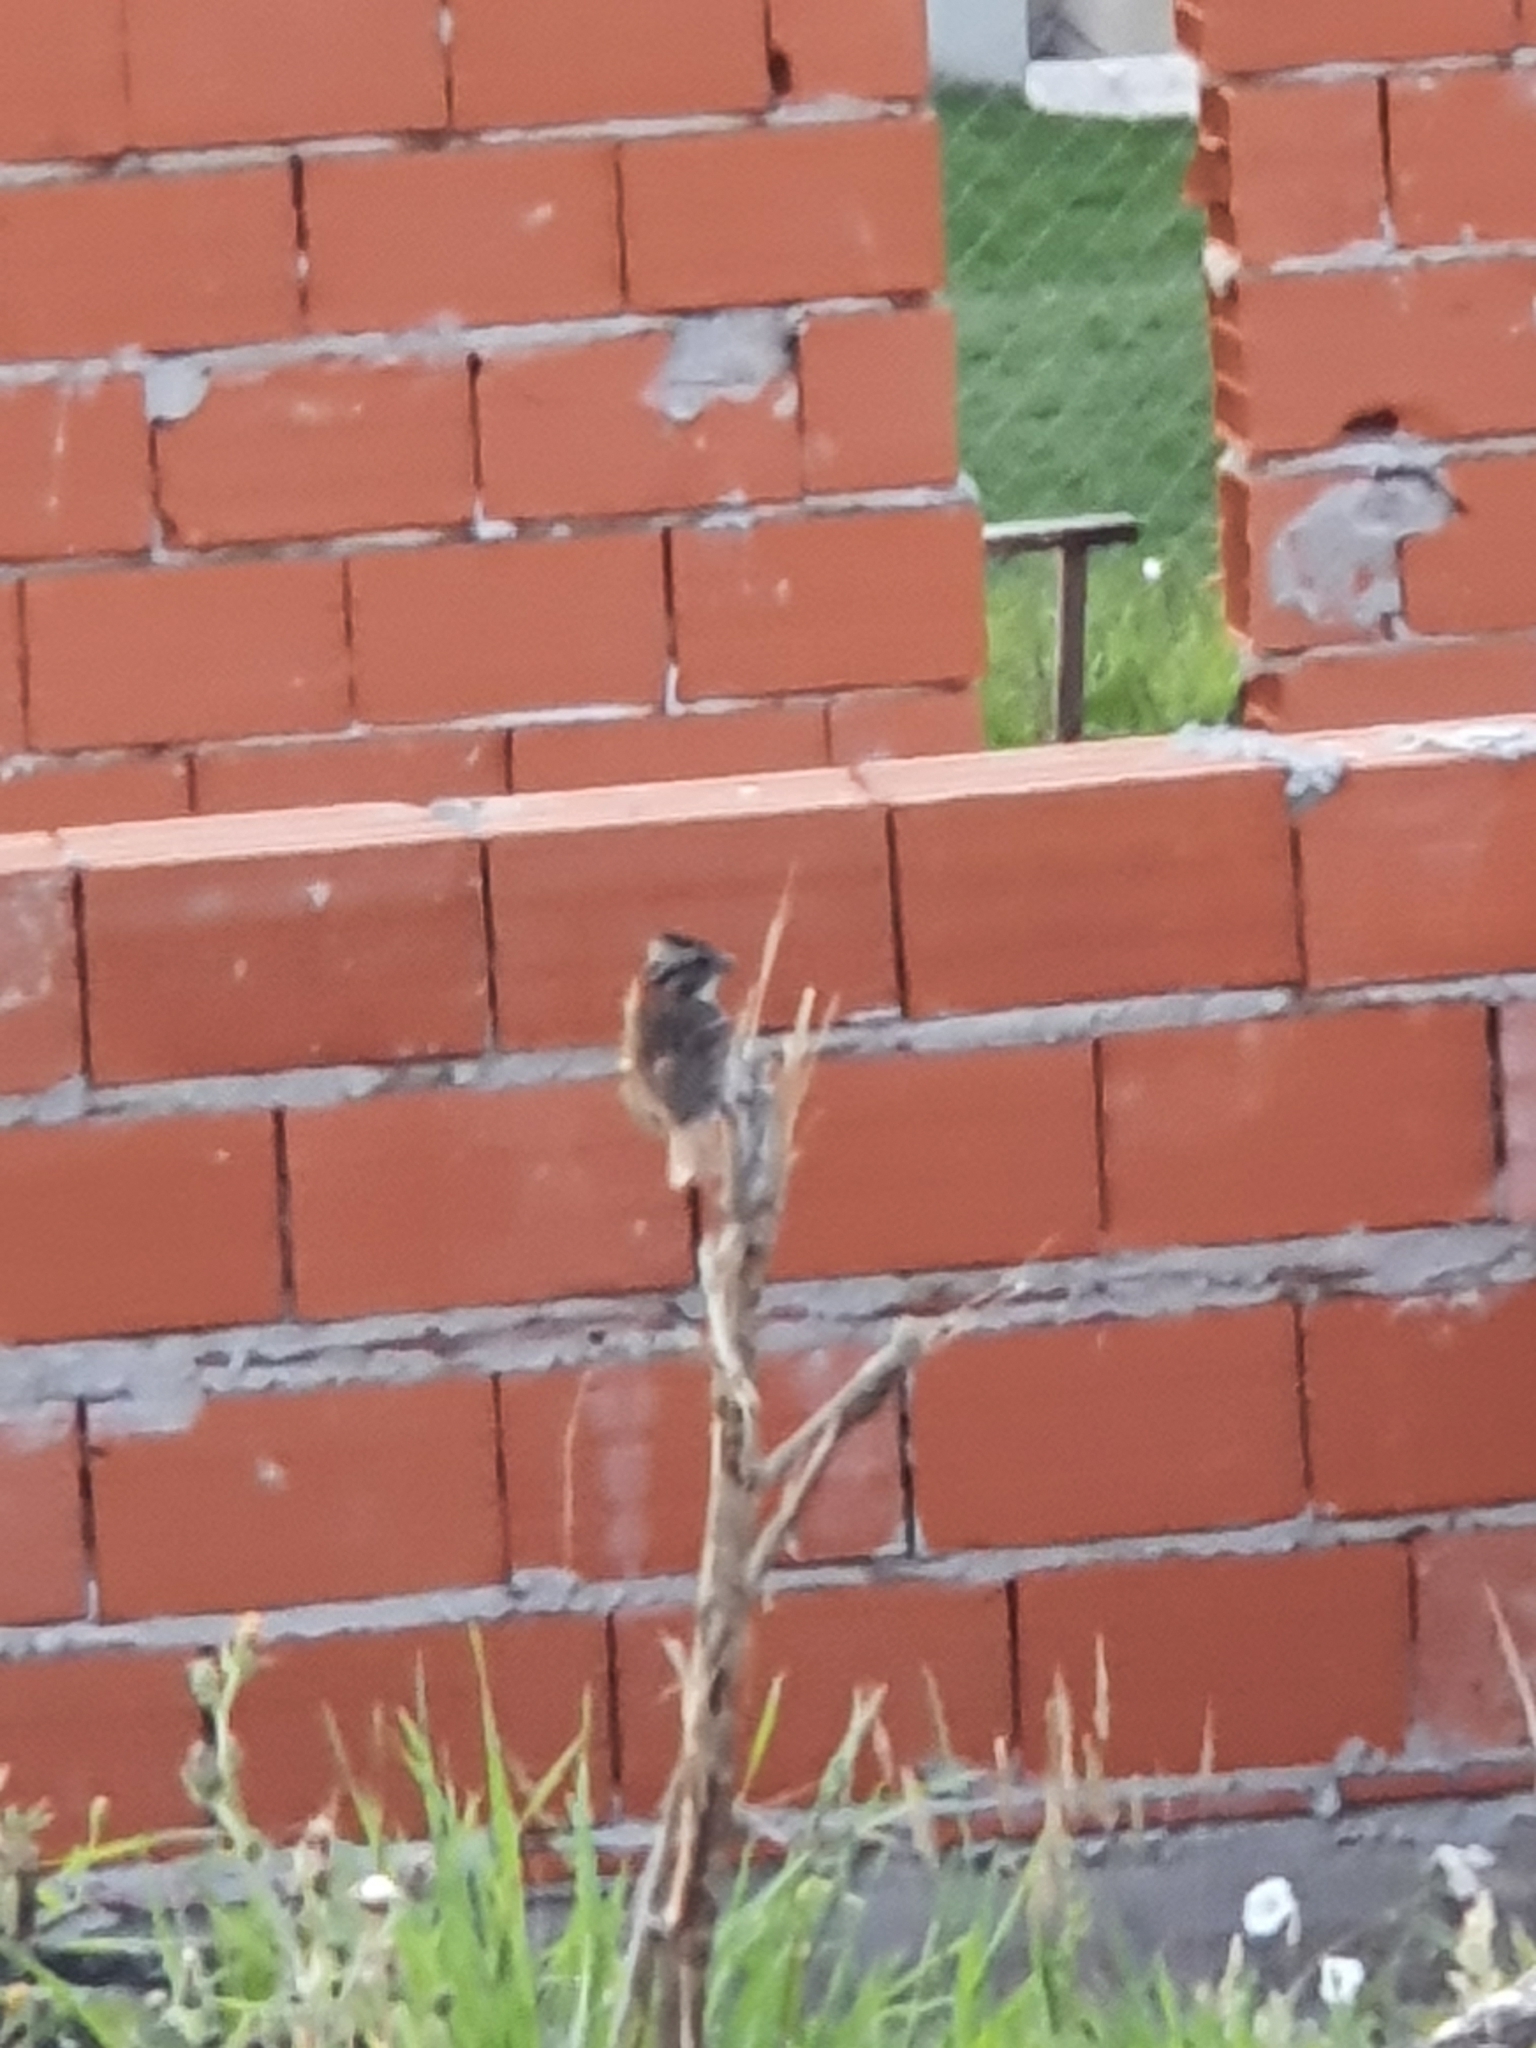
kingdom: Animalia
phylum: Chordata
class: Aves
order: Passeriformes
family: Passerellidae
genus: Zonotrichia
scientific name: Zonotrichia capensis
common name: Rufous-collared sparrow
